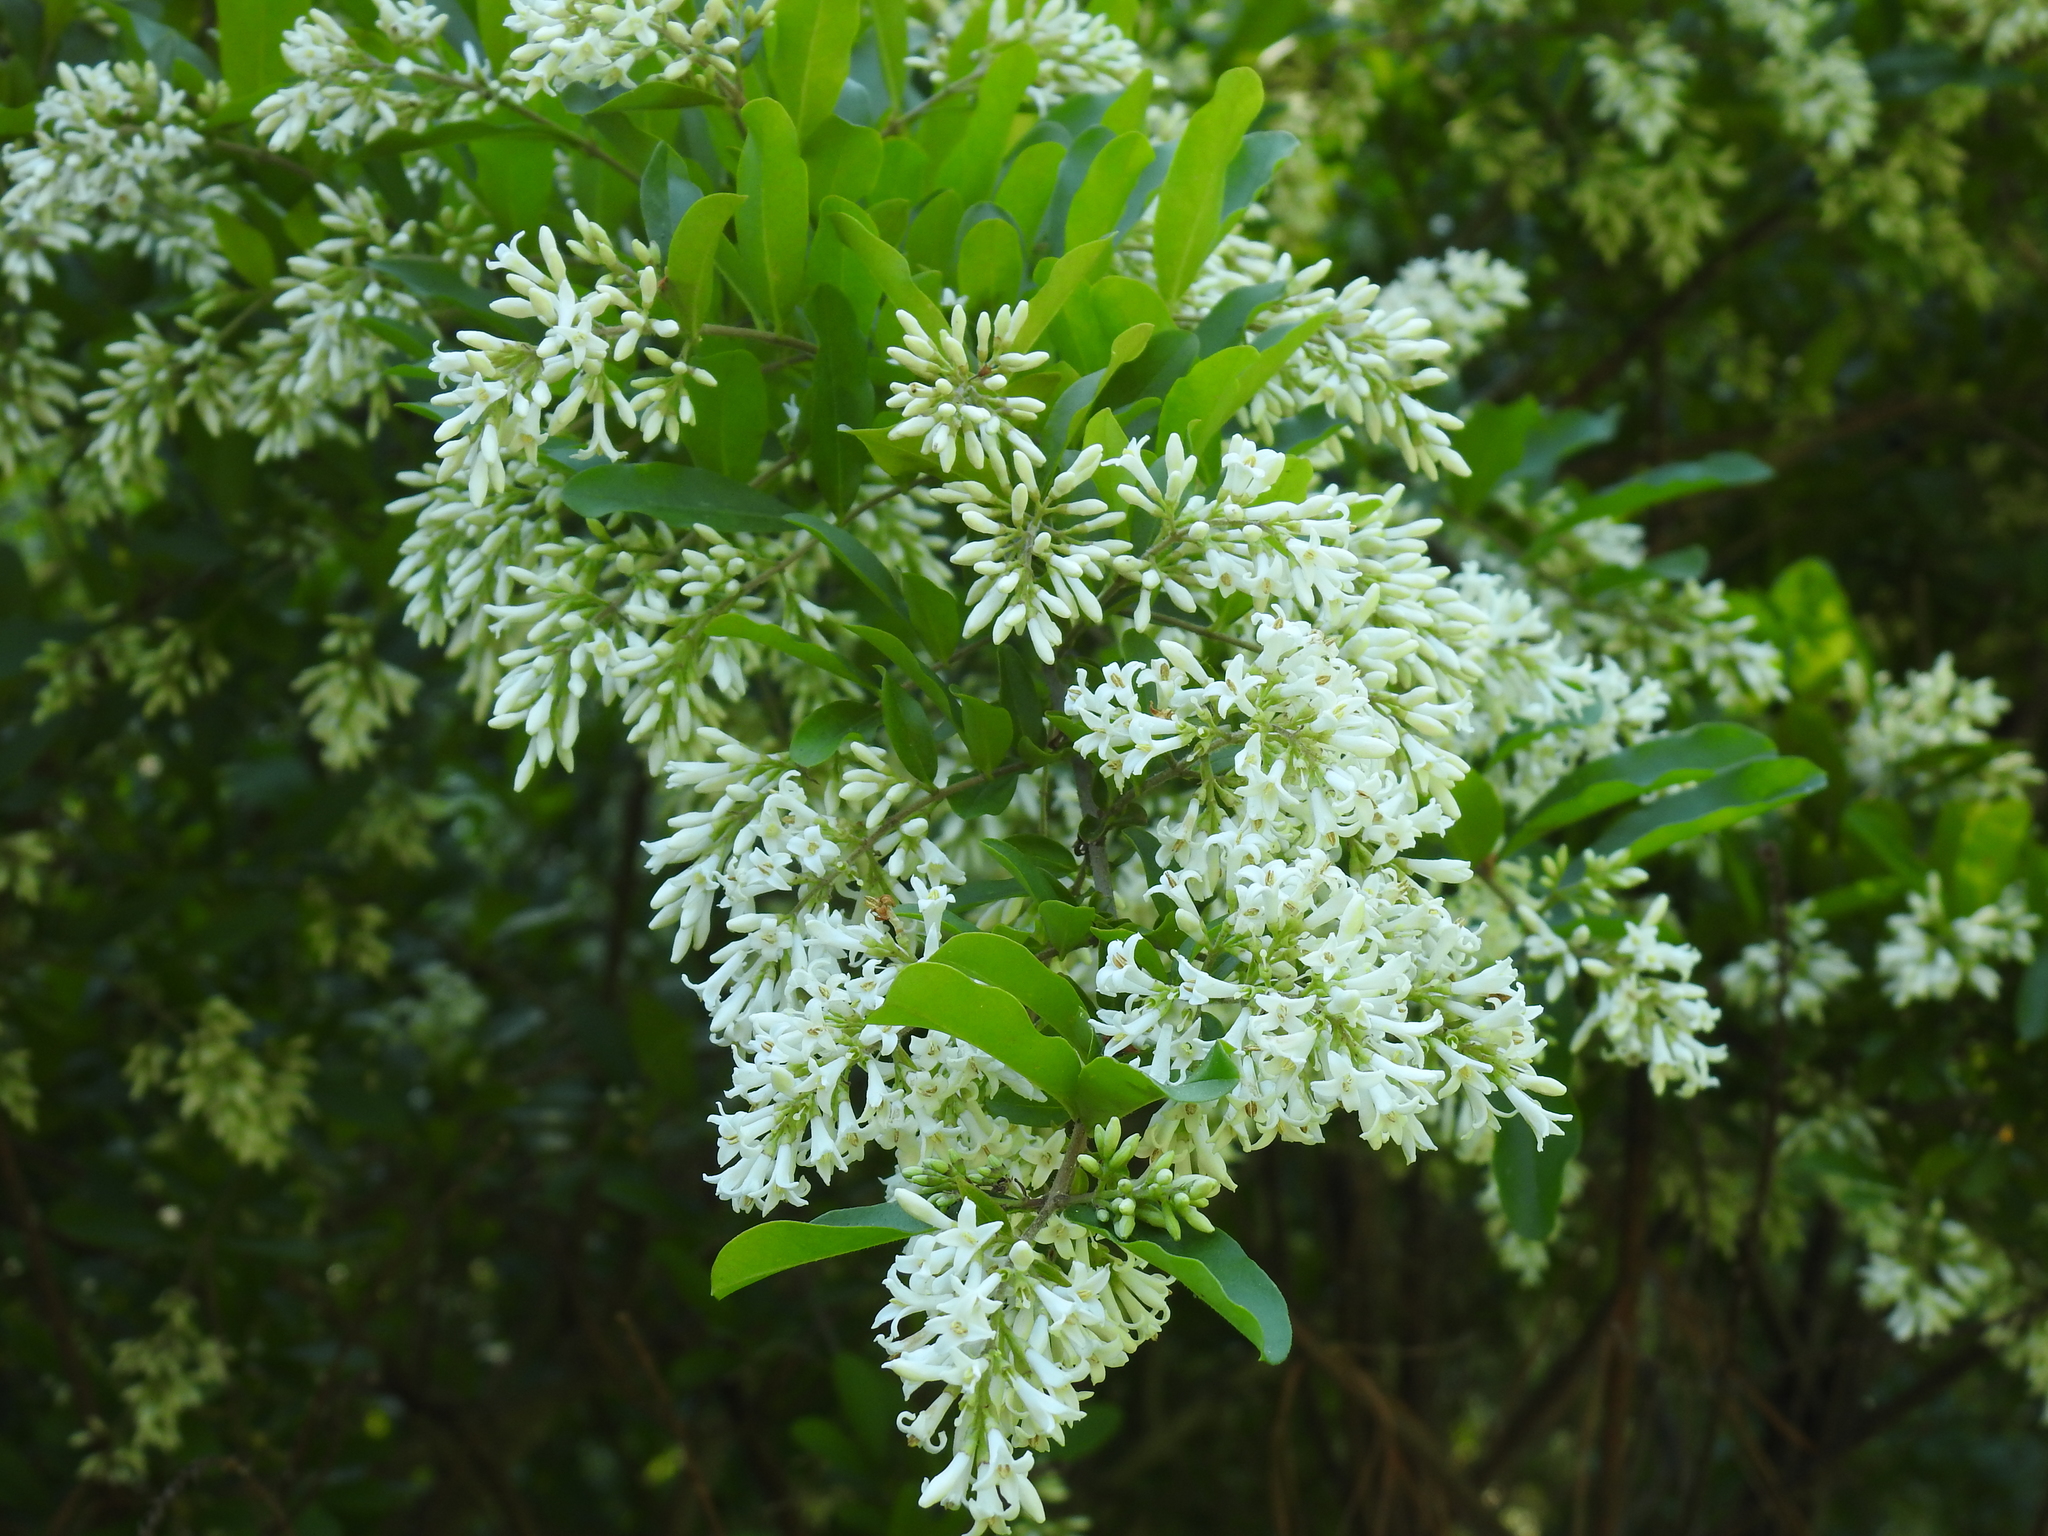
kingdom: Plantae
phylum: Tracheophyta
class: Magnoliopsida
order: Lamiales
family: Oleaceae
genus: Ligustrum
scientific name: Ligustrum obtusifolium
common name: Border privet
